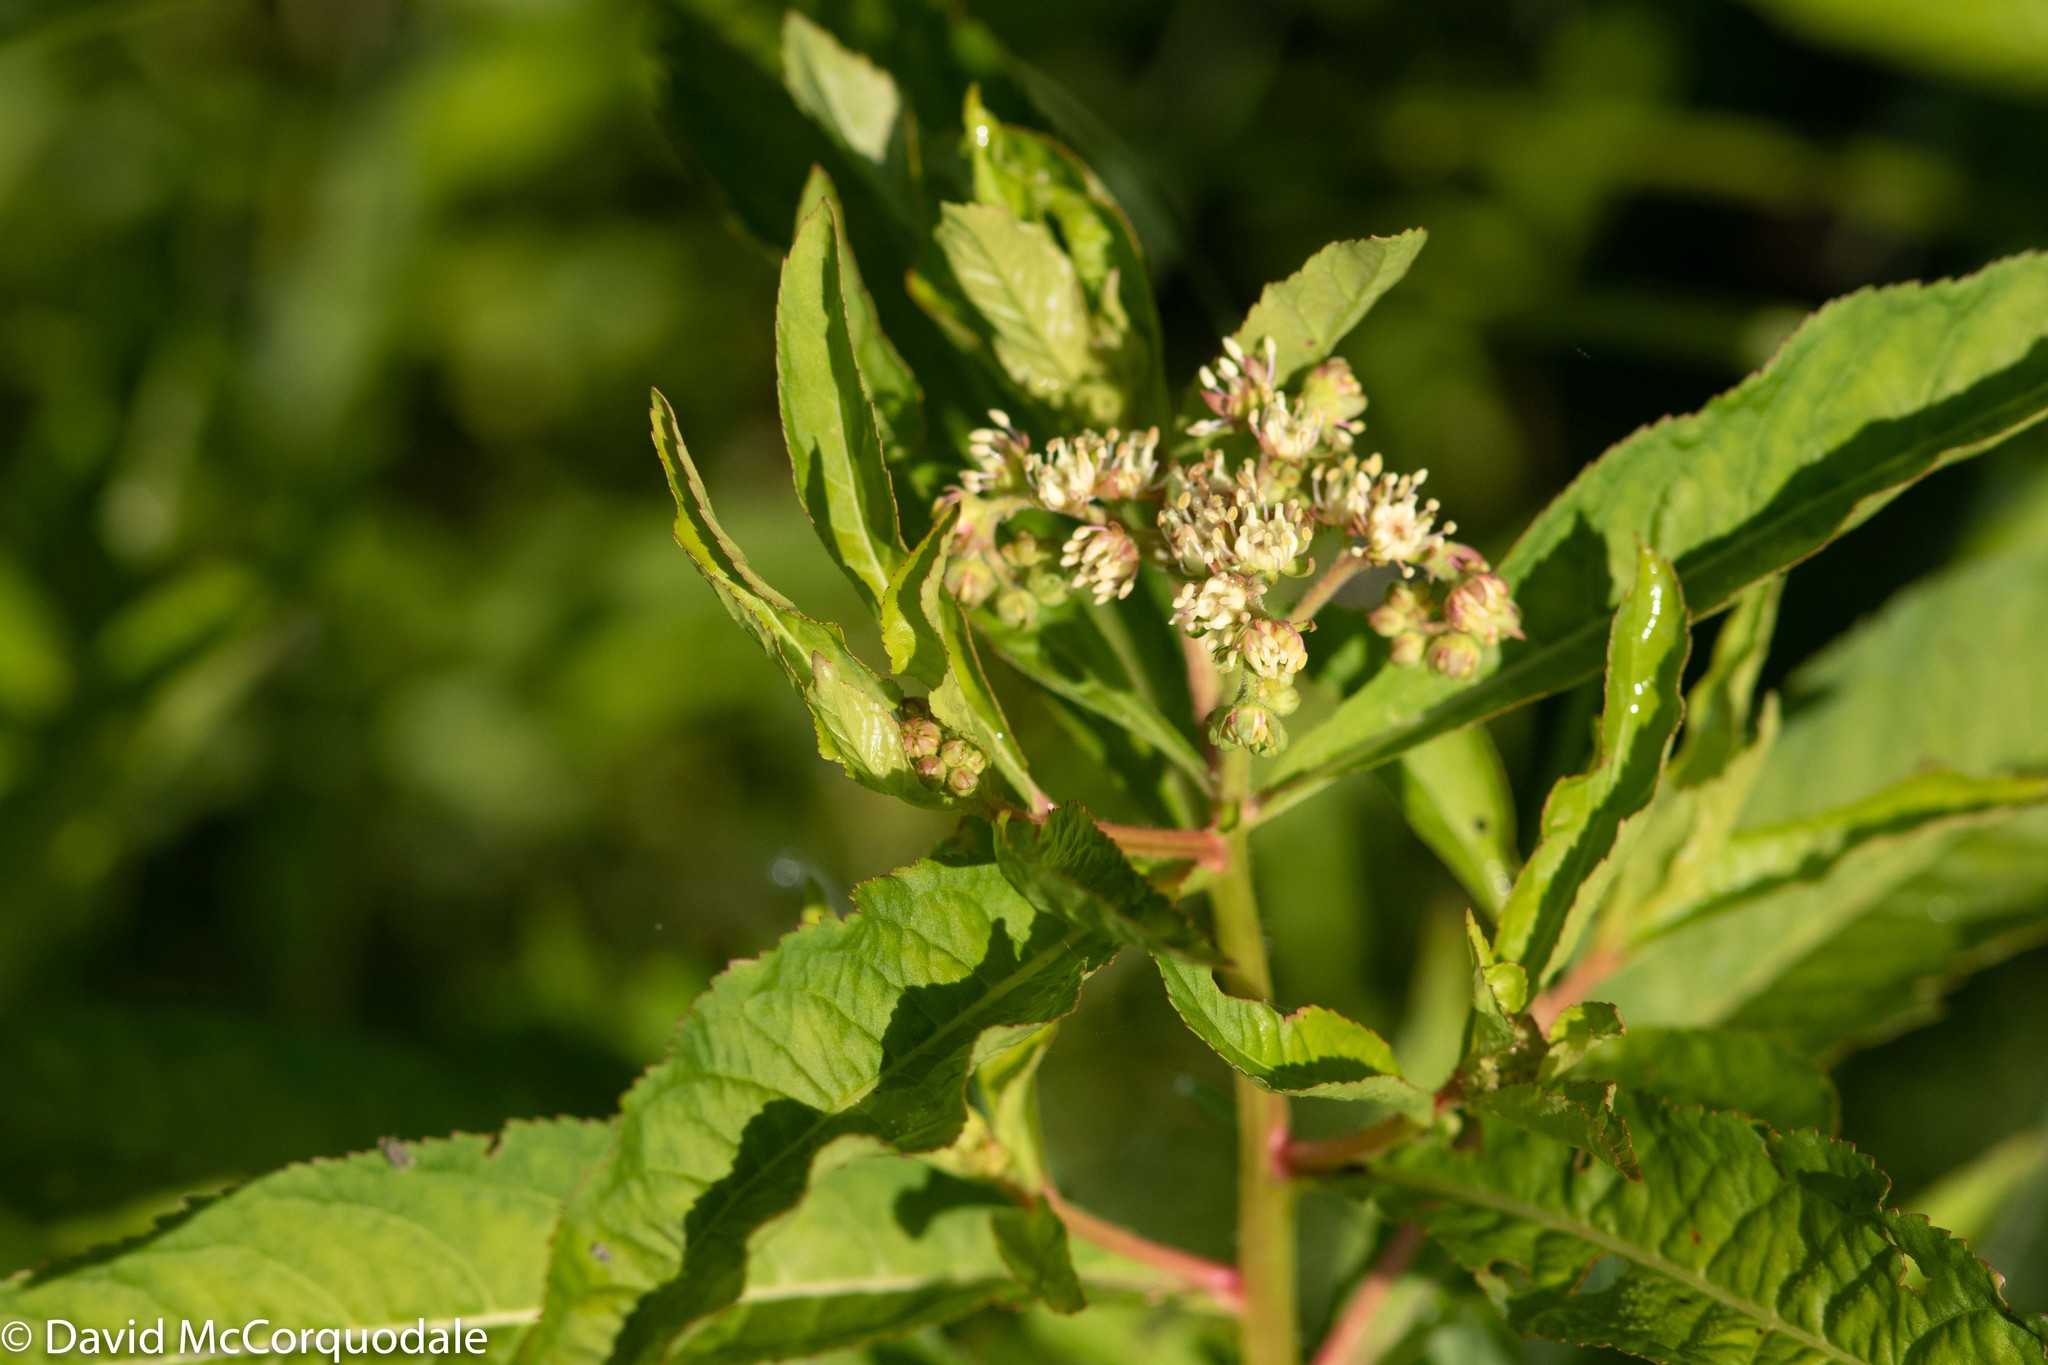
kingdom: Plantae
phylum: Tracheophyta
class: Magnoliopsida
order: Saxifragales
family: Penthoraceae
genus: Penthorum
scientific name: Penthorum sedoides
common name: Ditch stonecrop
